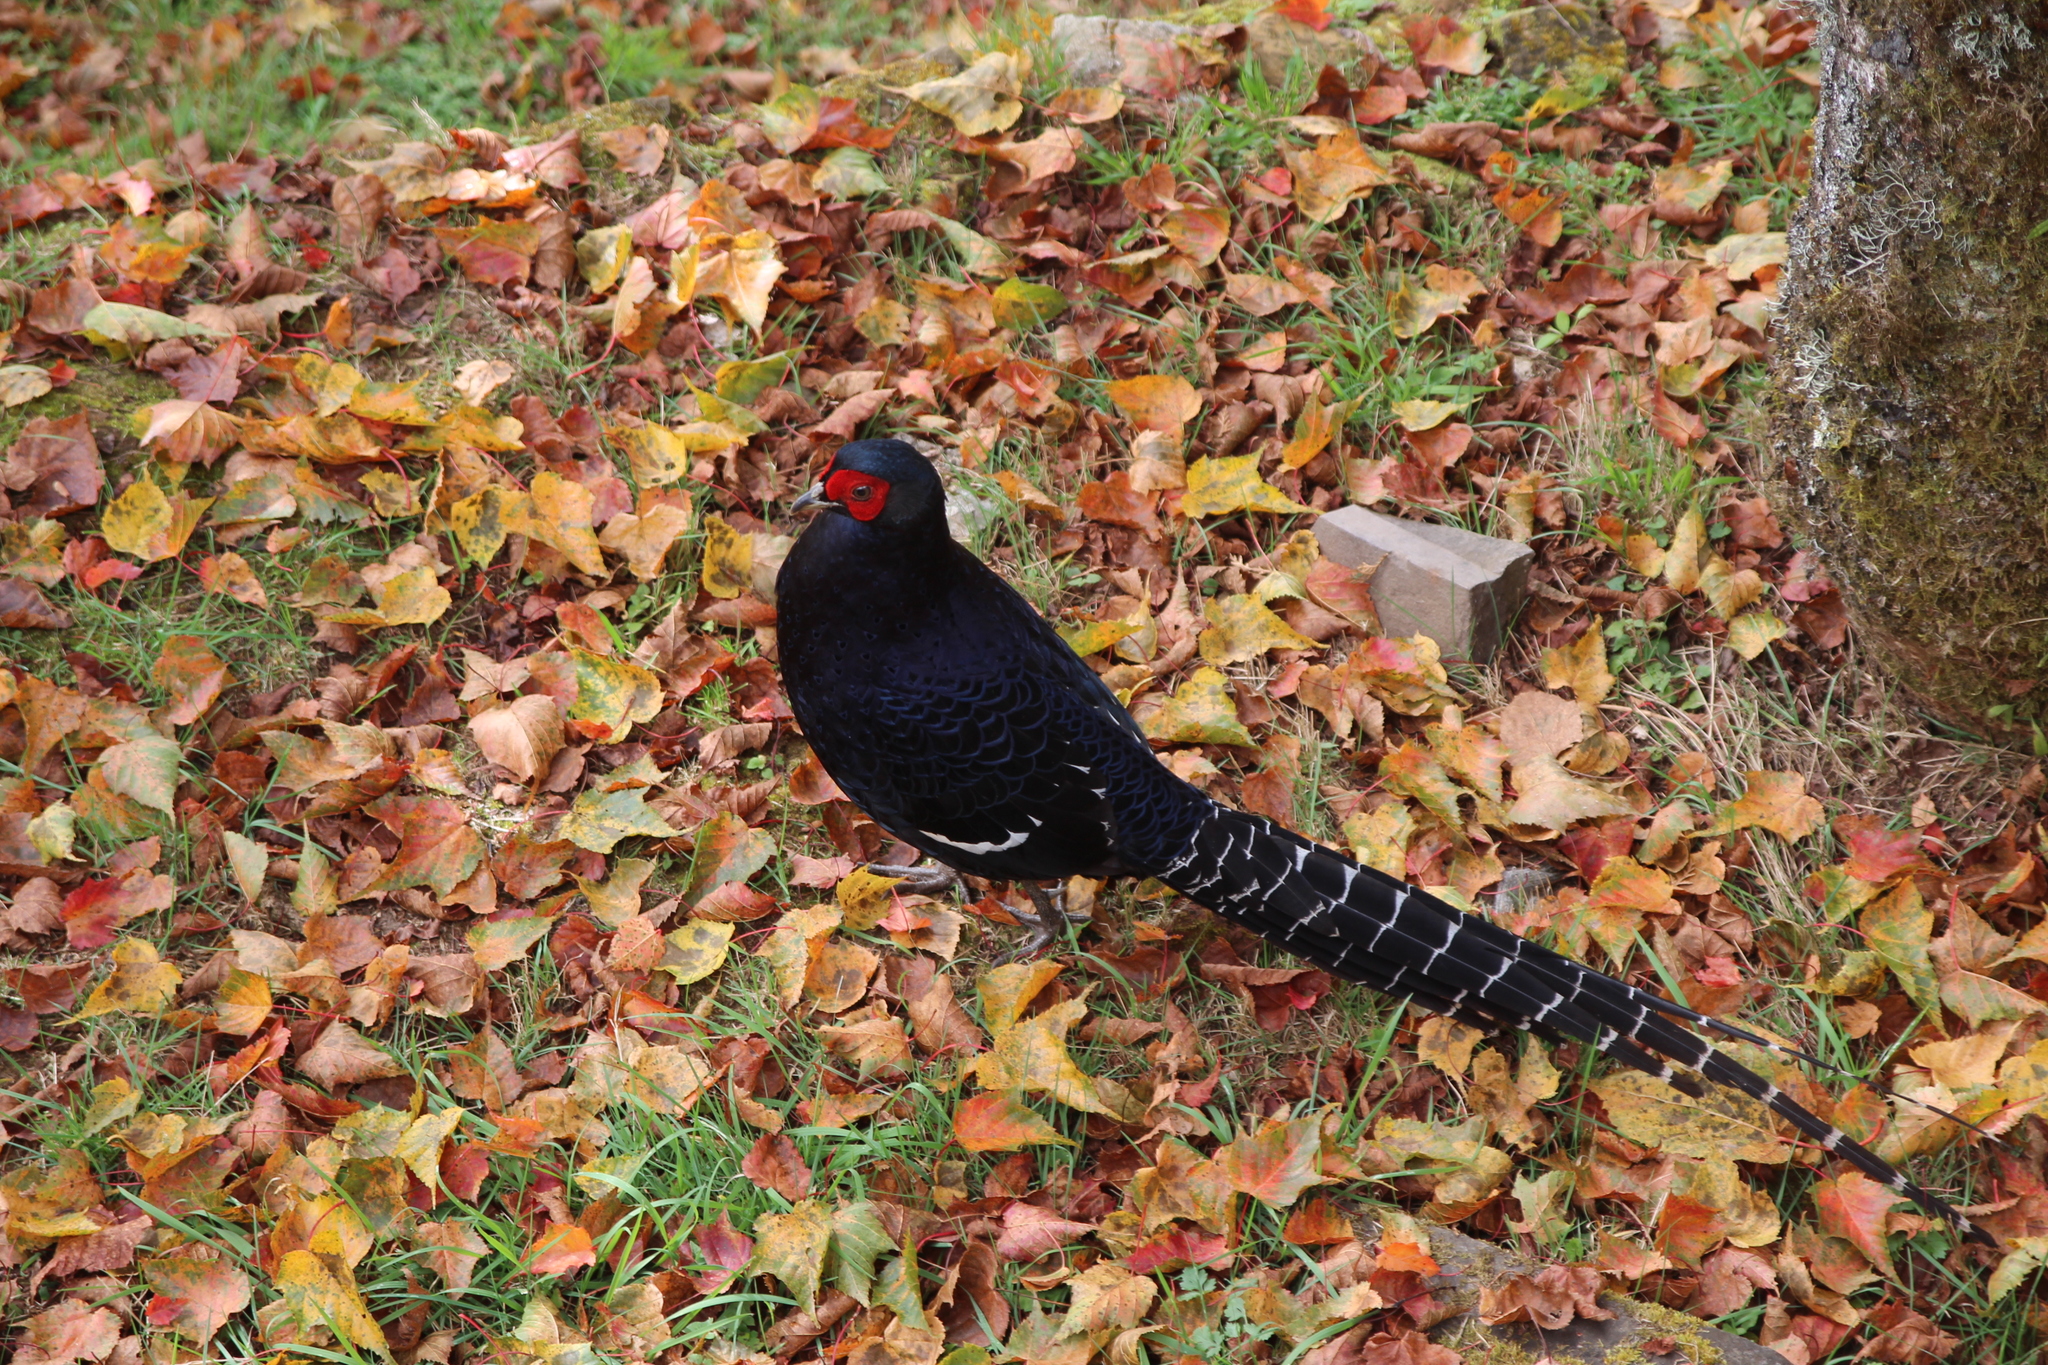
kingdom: Animalia
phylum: Chordata
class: Aves
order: Galliformes
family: Phasianidae
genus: Syrmaticus
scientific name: Syrmaticus mikado
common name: Mikado pheasant
